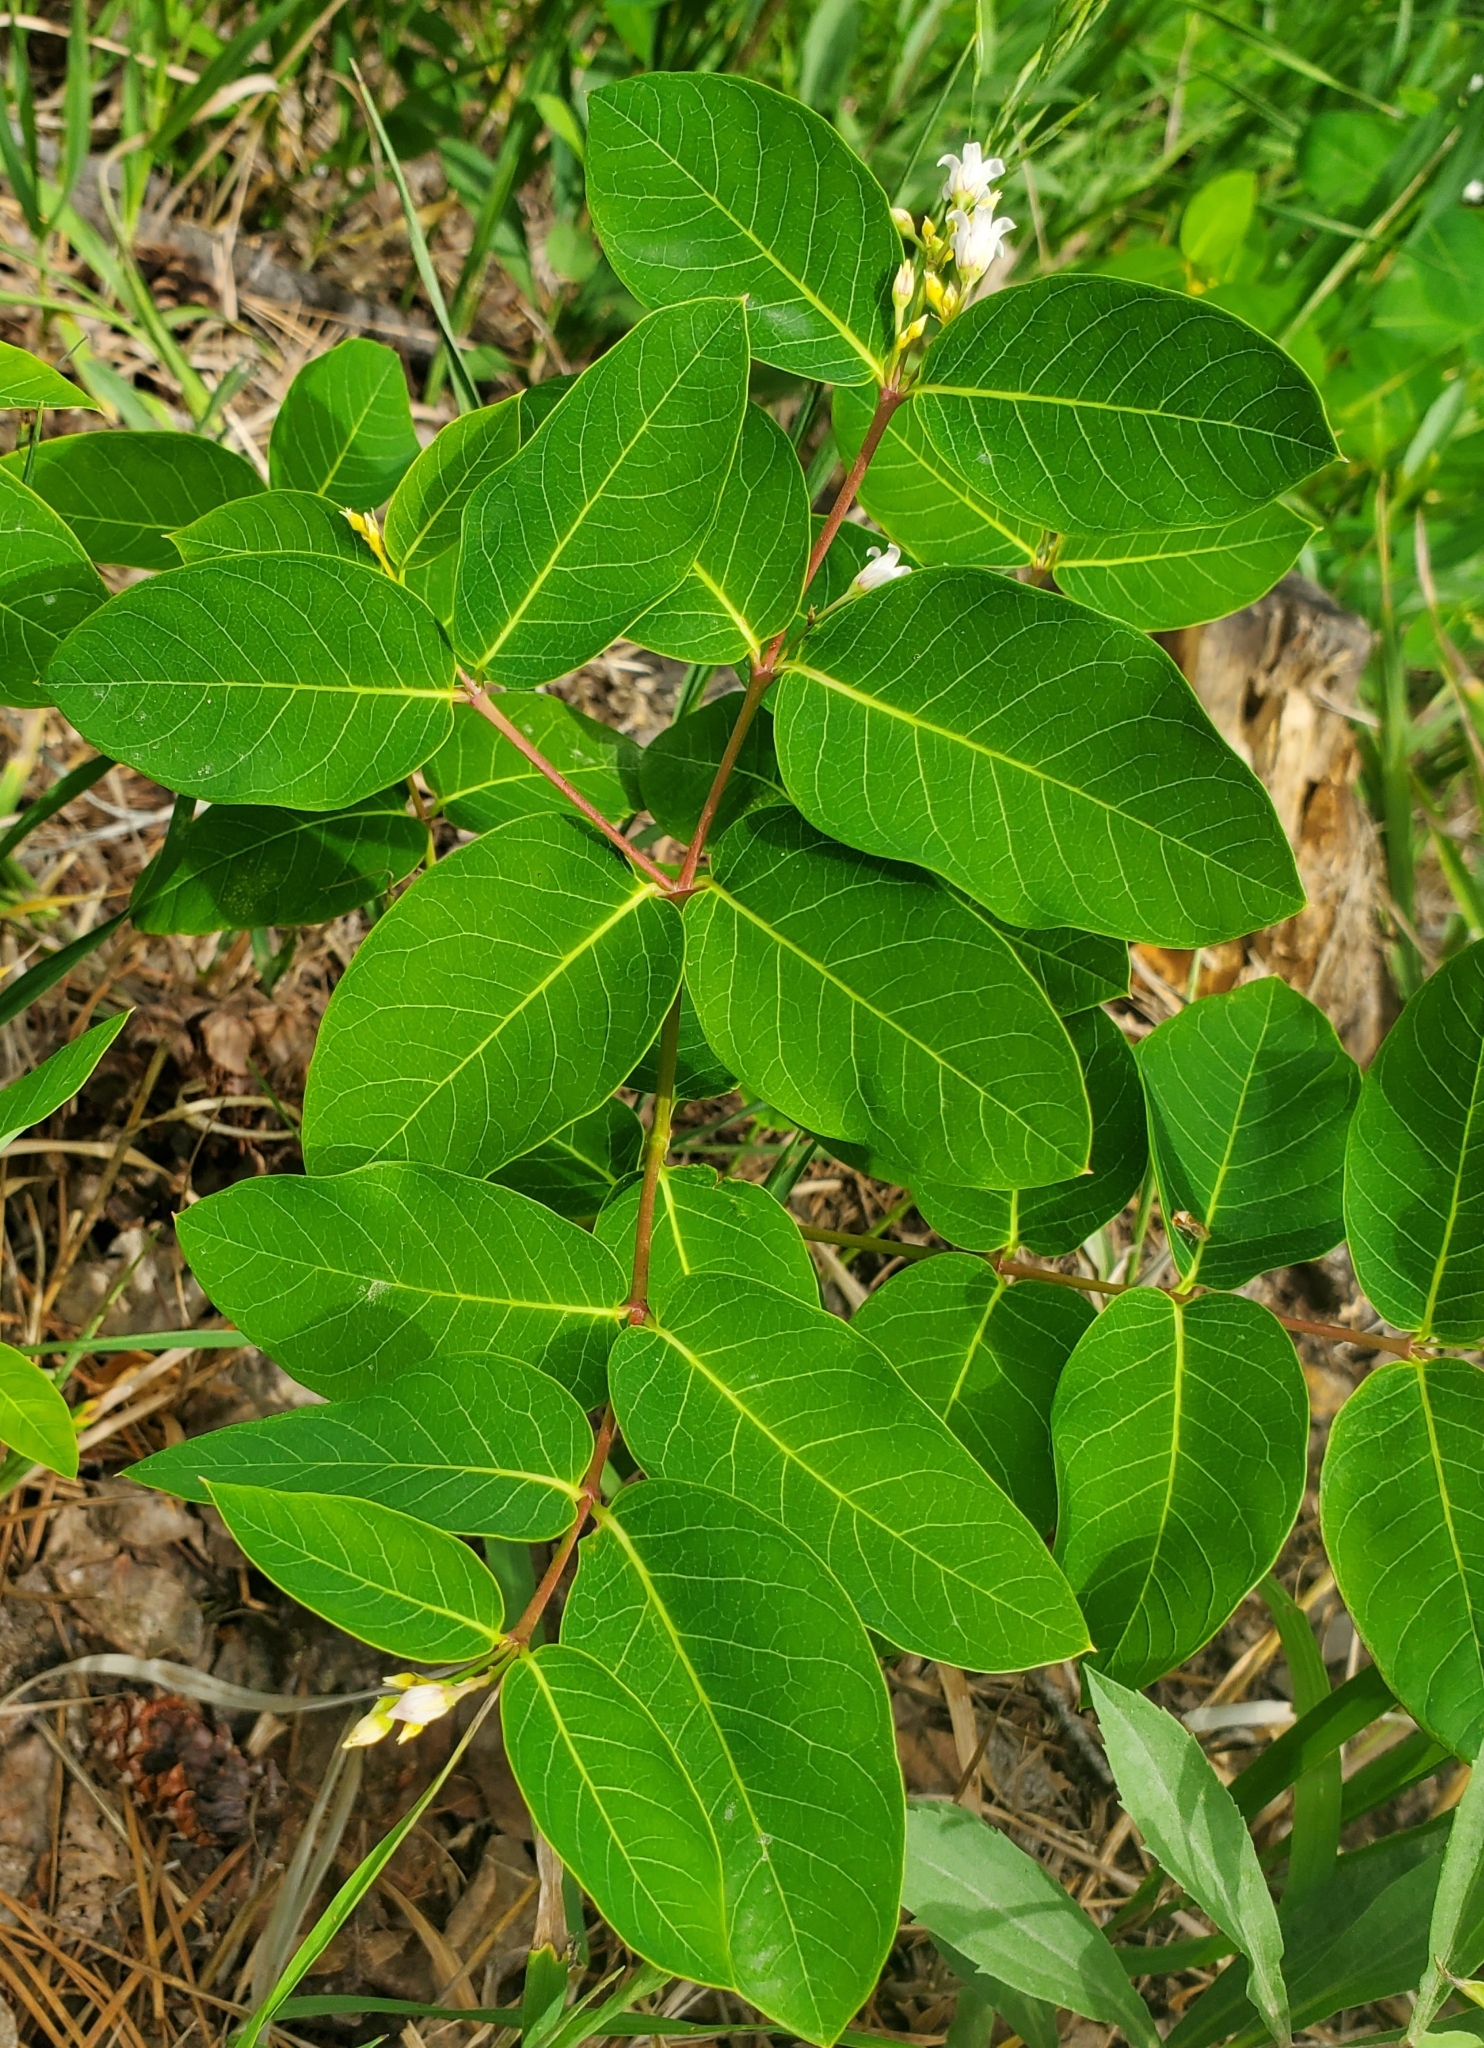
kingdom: Plantae
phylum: Tracheophyta
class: Magnoliopsida
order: Gentianales
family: Apocynaceae
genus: Apocynum
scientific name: Apocynum androsaemifolium
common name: Spreading dogbane
